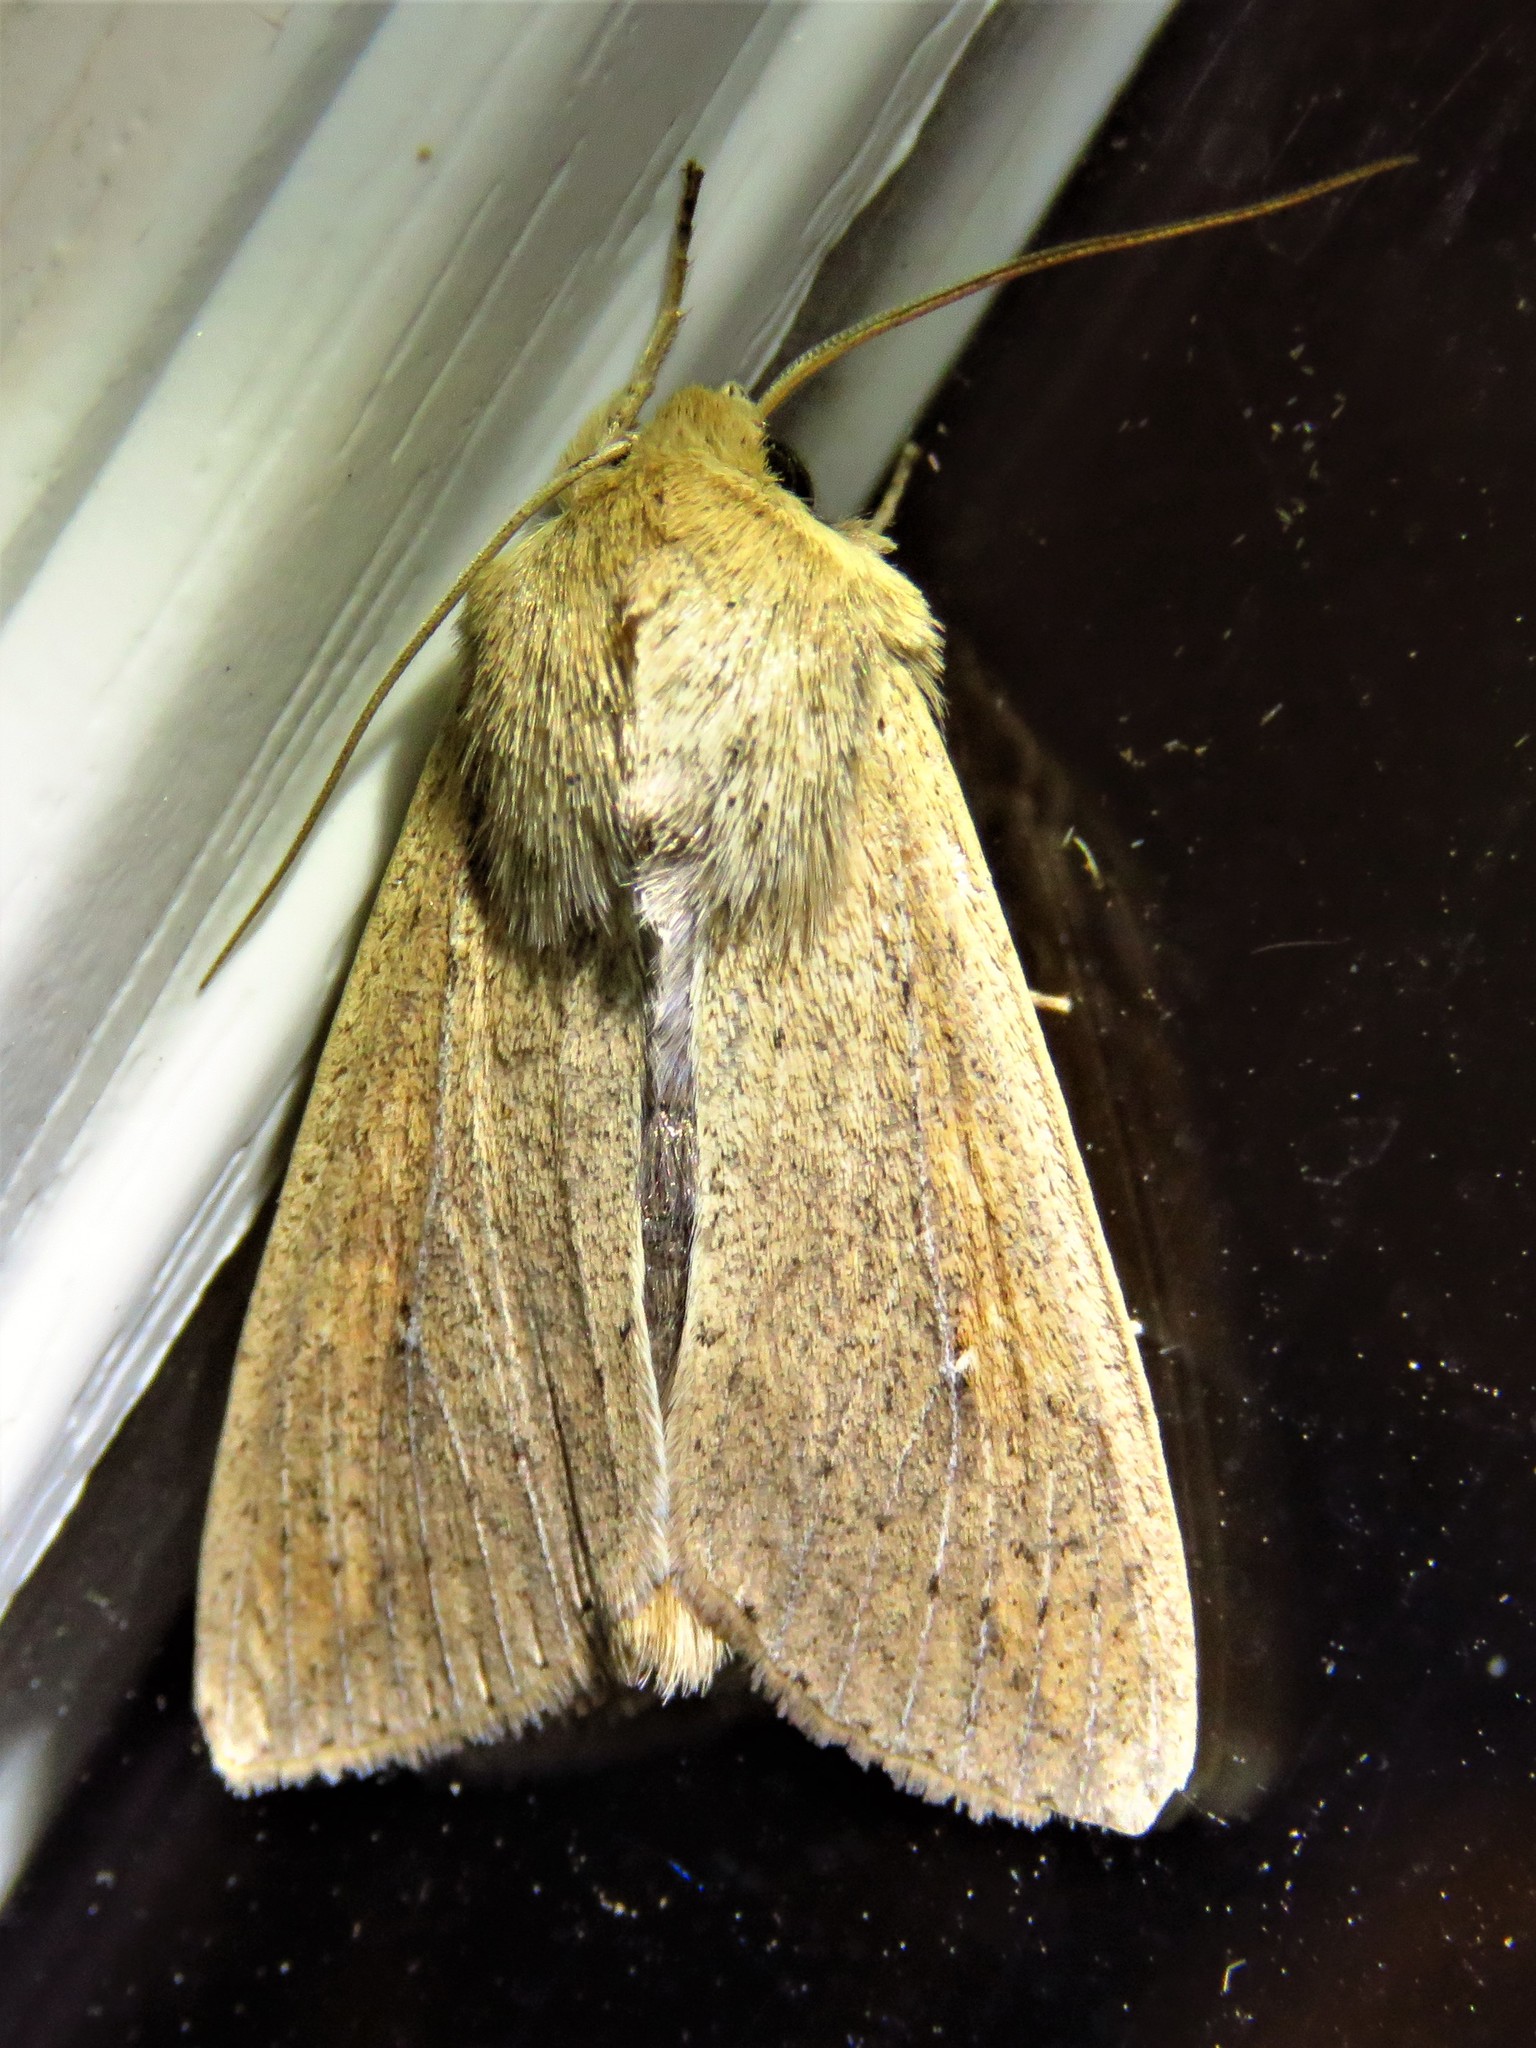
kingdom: Animalia
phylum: Arthropoda
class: Insecta
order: Lepidoptera
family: Noctuidae
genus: Mythimna
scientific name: Mythimna unipuncta
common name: White-speck
